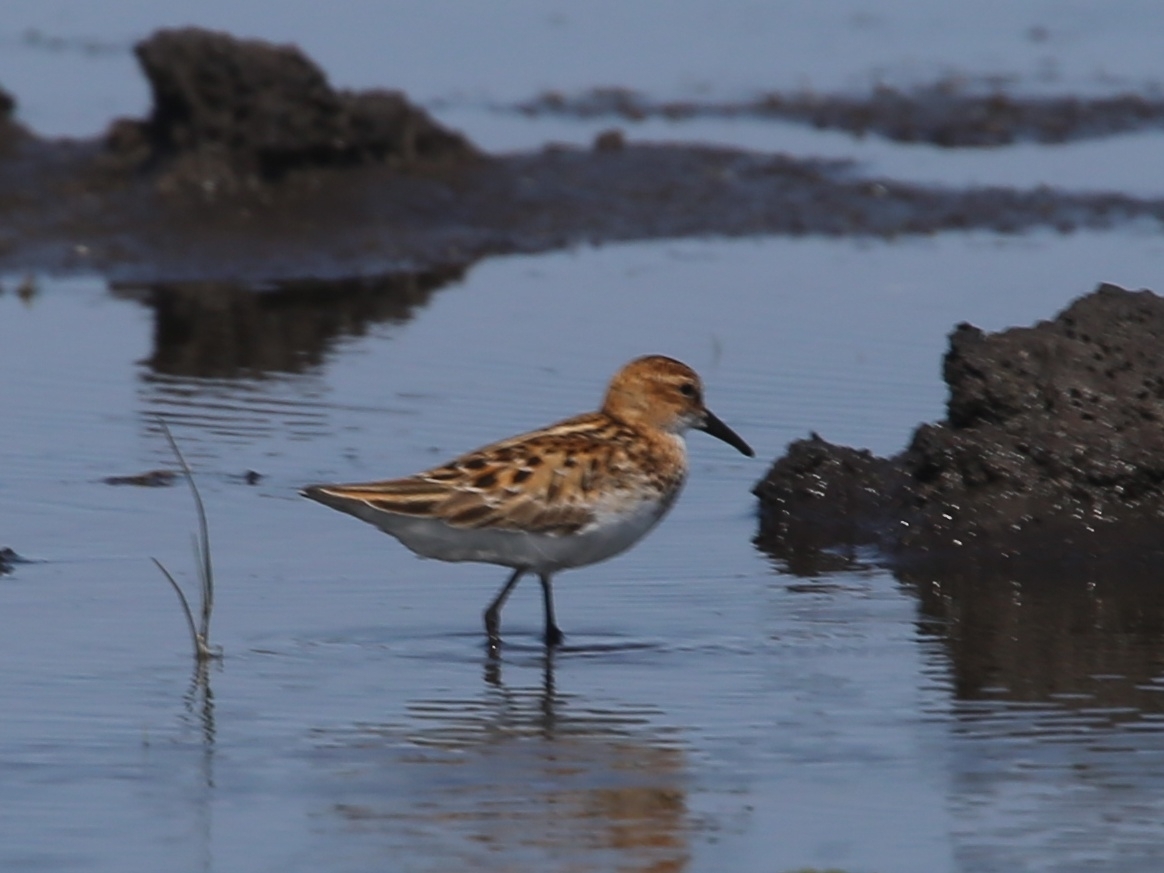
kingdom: Animalia
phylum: Chordata
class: Aves
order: Charadriiformes
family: Scolopacidae
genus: Calidris
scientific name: Calidris minuta
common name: Little stint
